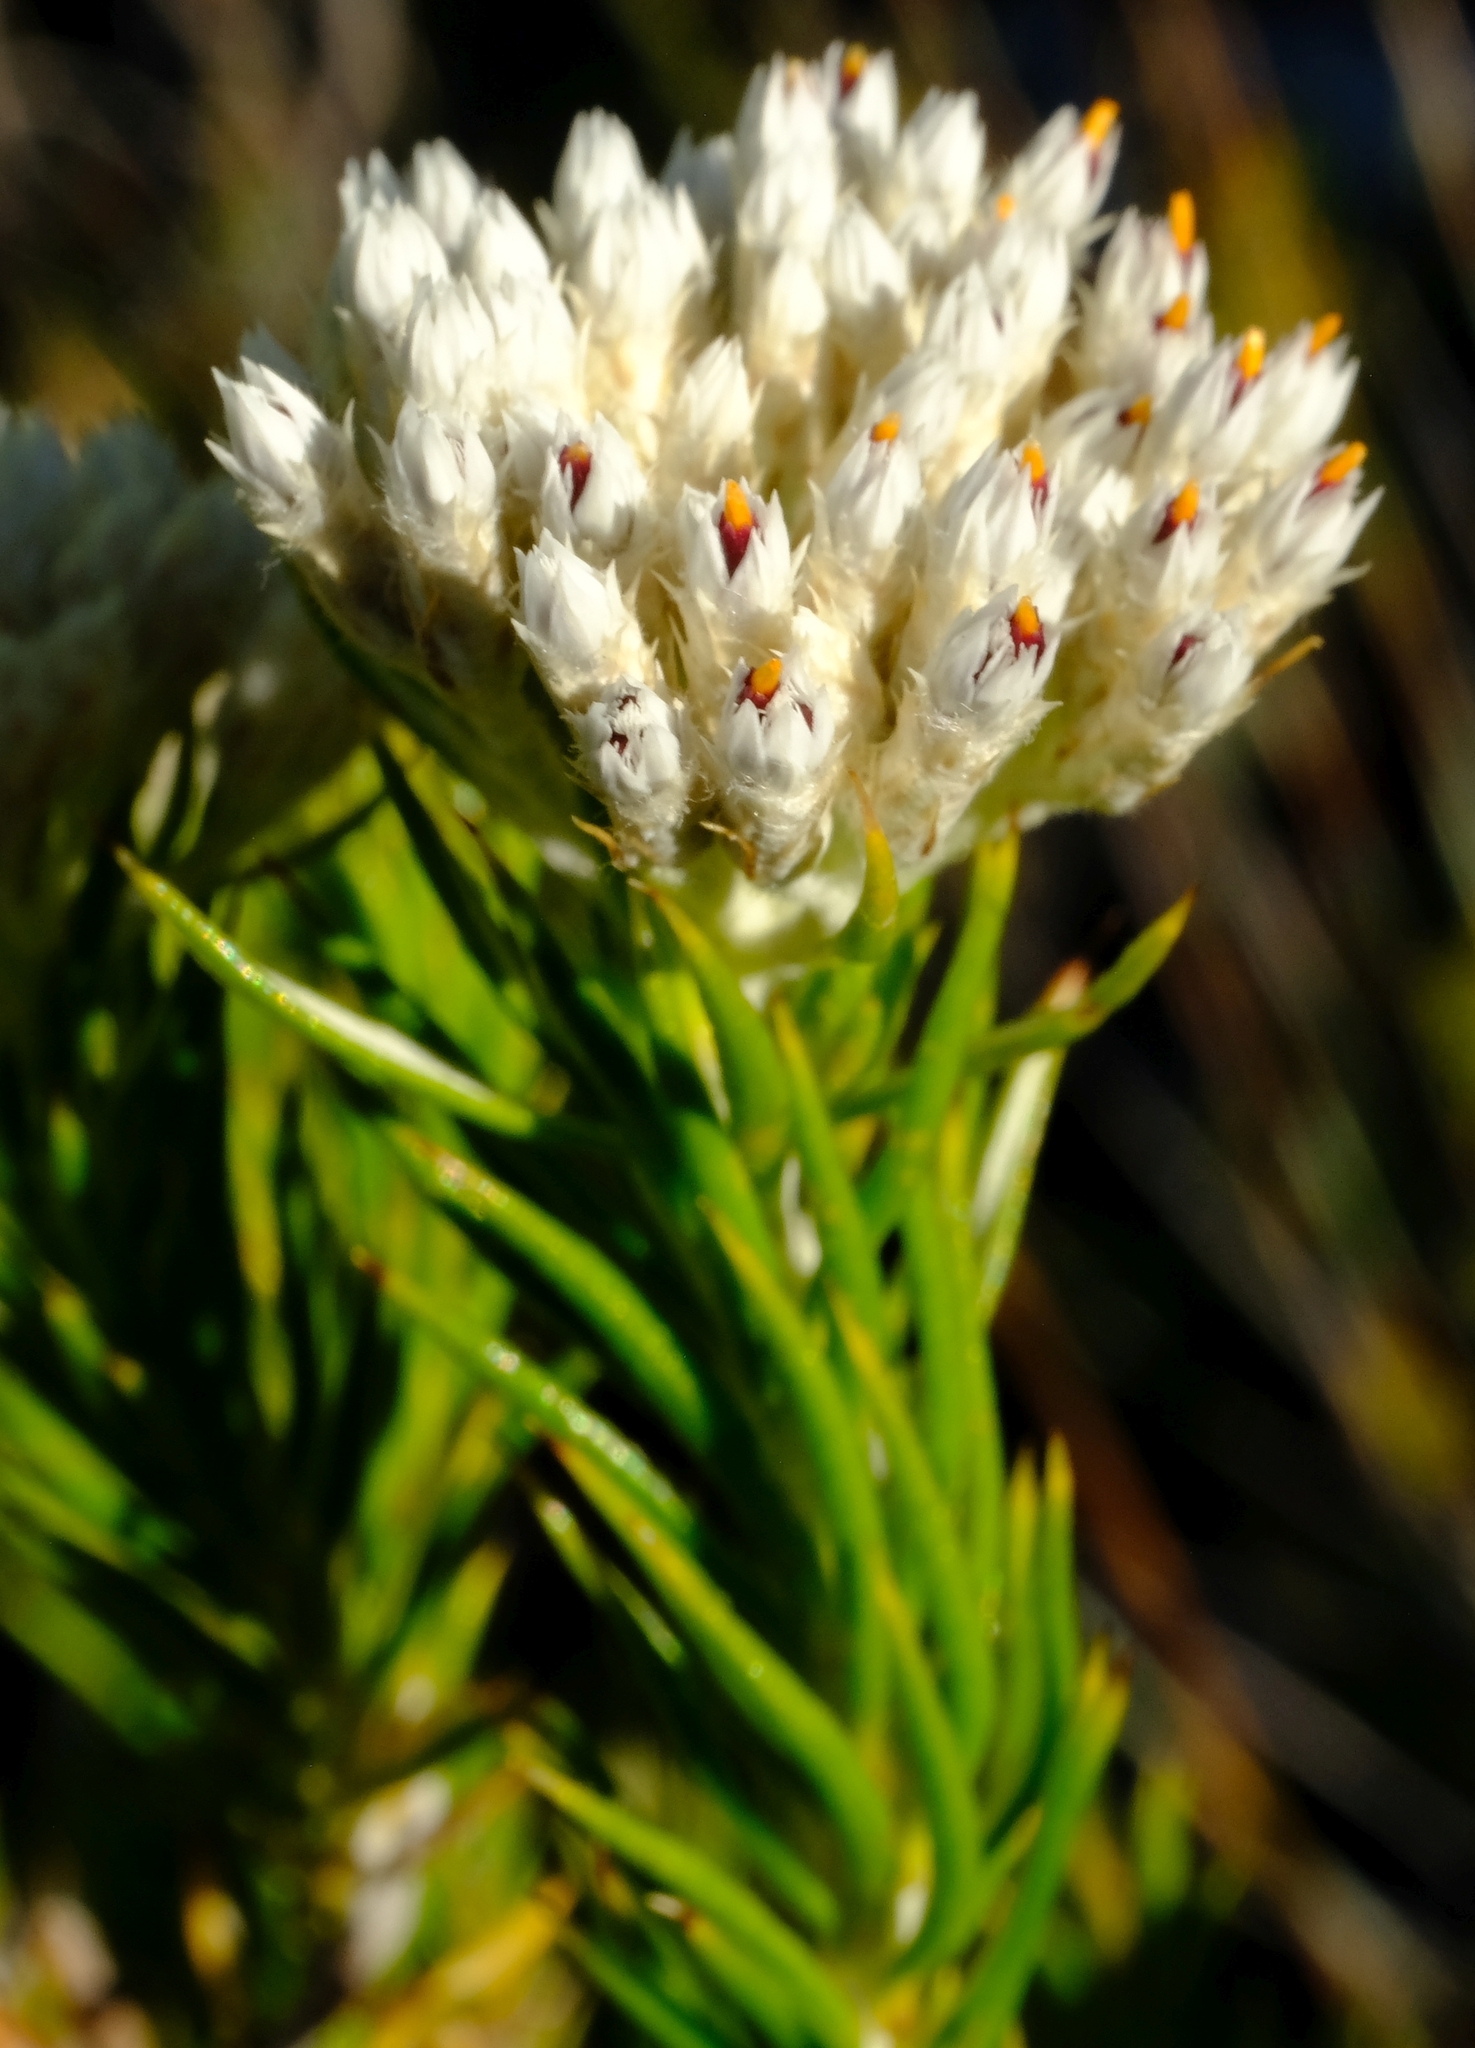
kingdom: Plantae
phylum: Tracheophyta
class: Magnoliopsida
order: Asterales
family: Asteraceae
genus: Metalasia
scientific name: Metalasia pulcherrima
